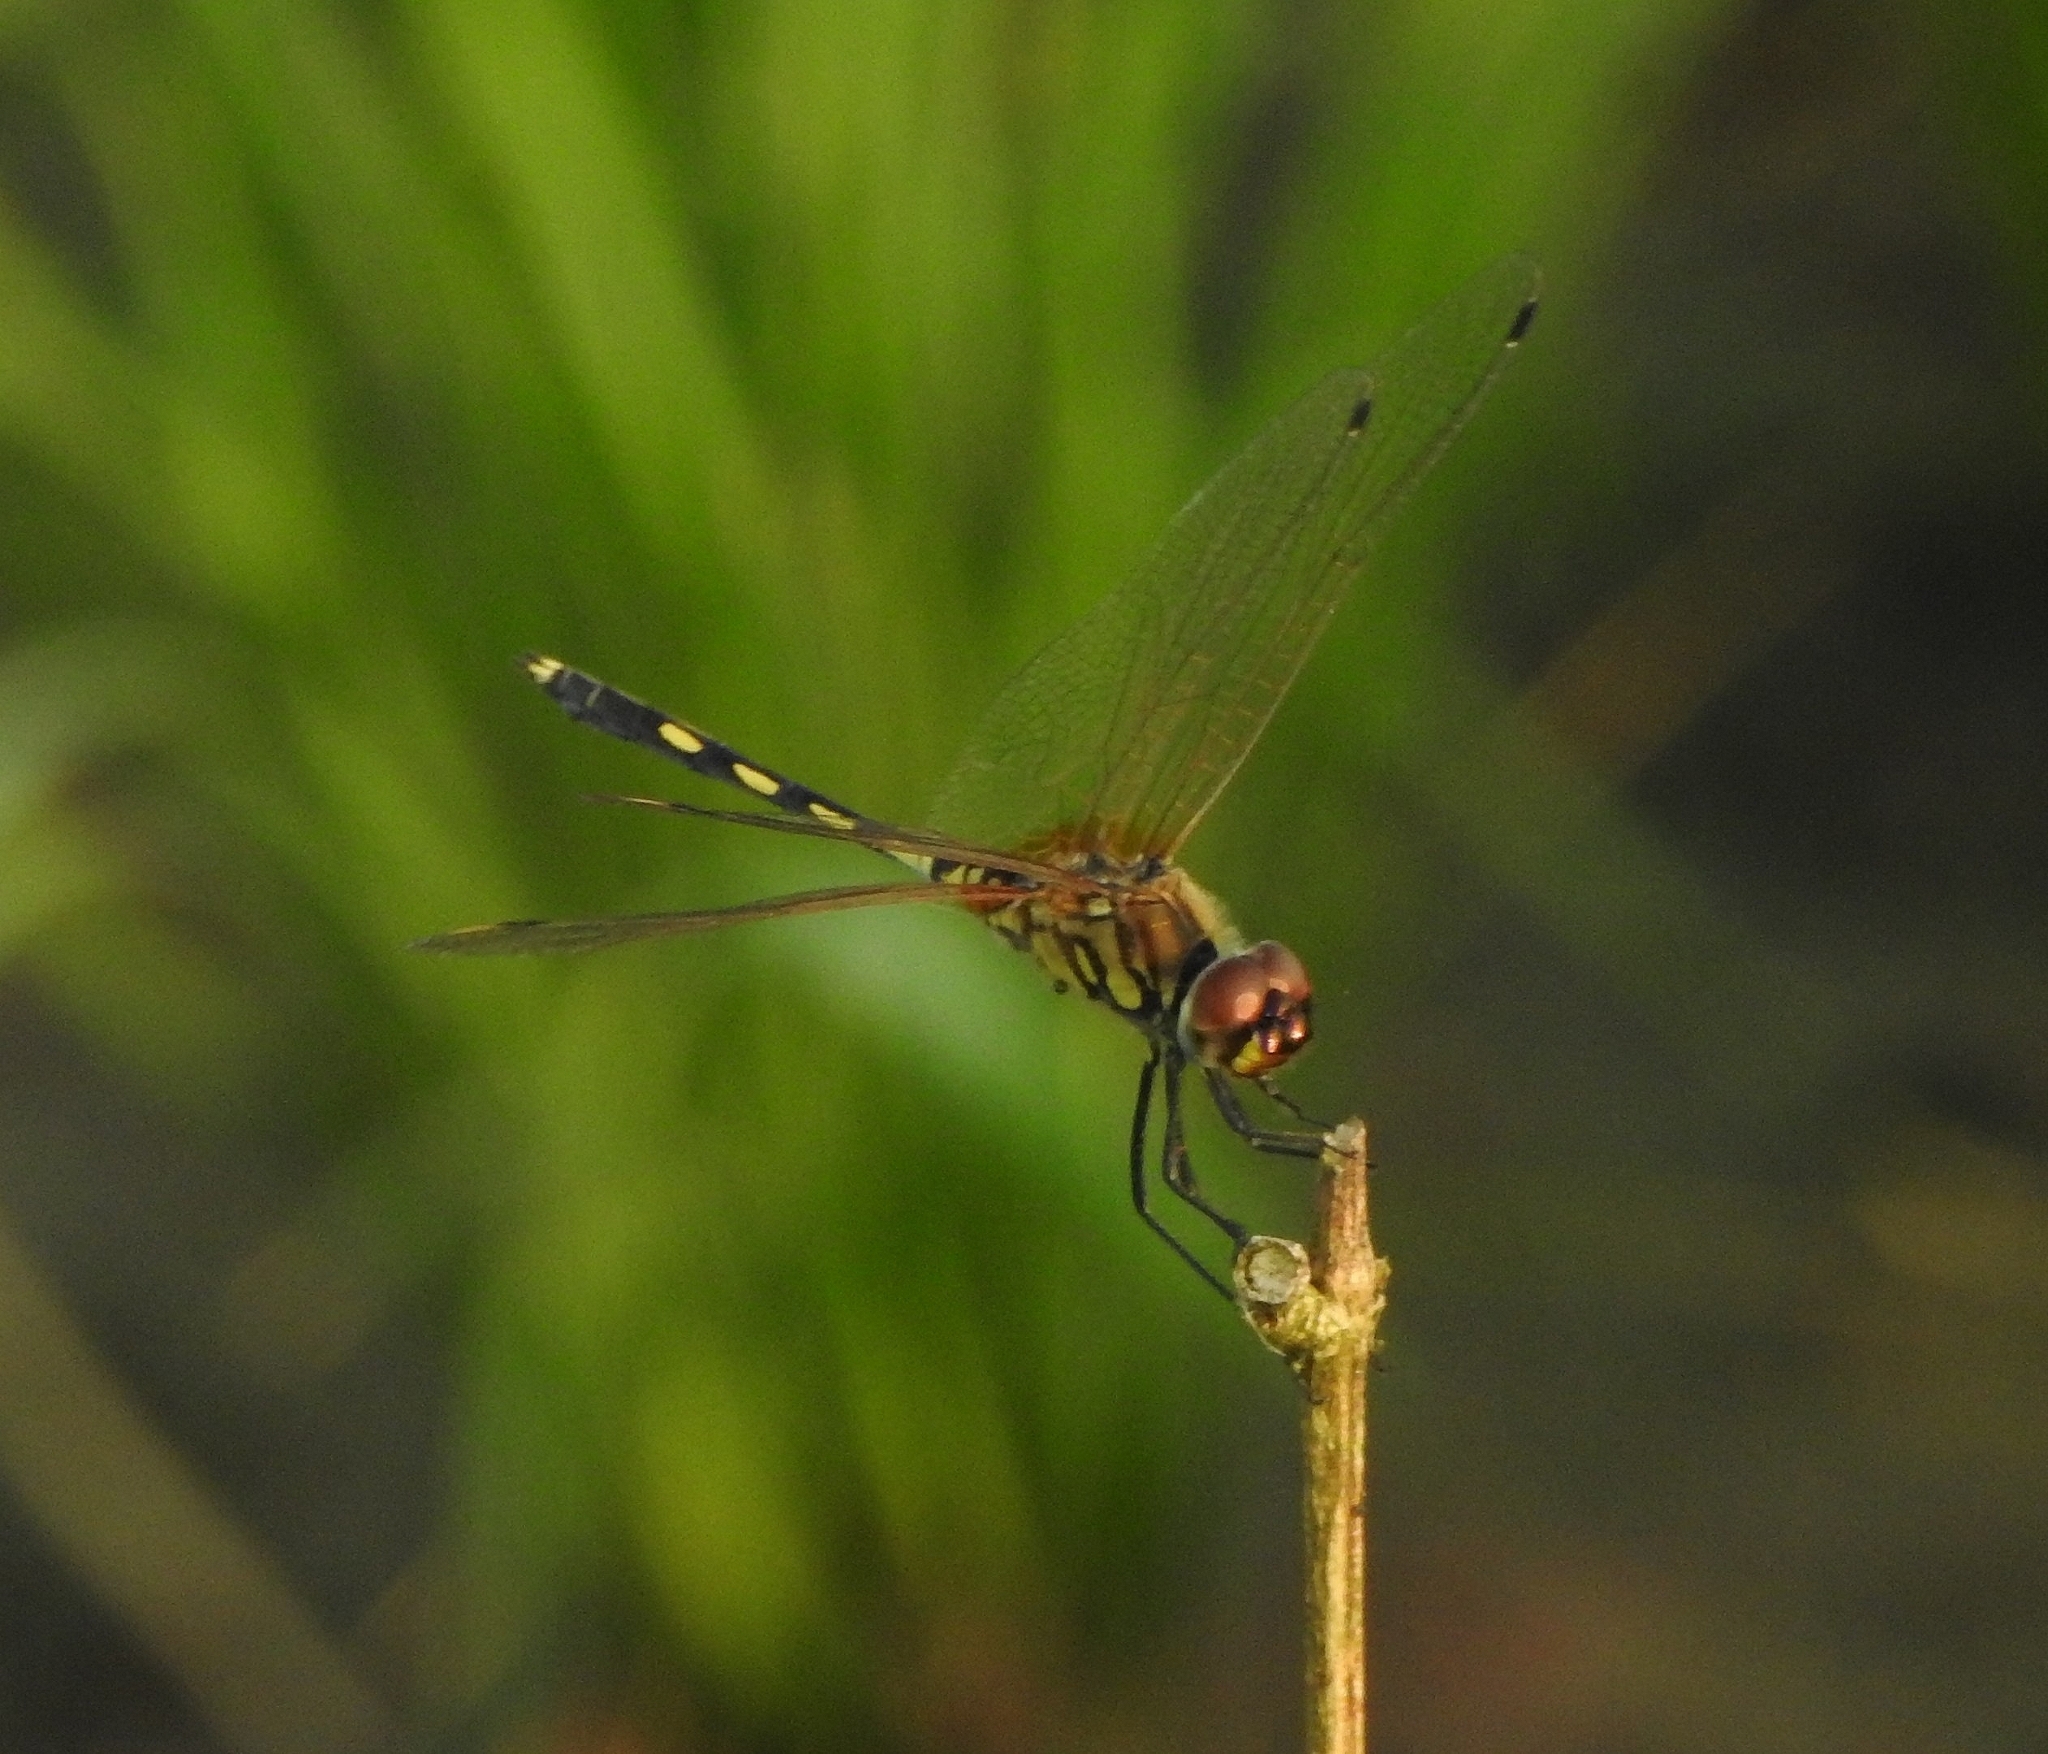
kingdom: Animalia
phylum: Arthropoda
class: Insecta
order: Odonata
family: Libellulidae
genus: Trithemis
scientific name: Trithemis pallidinervis
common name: Dancing dropwing
